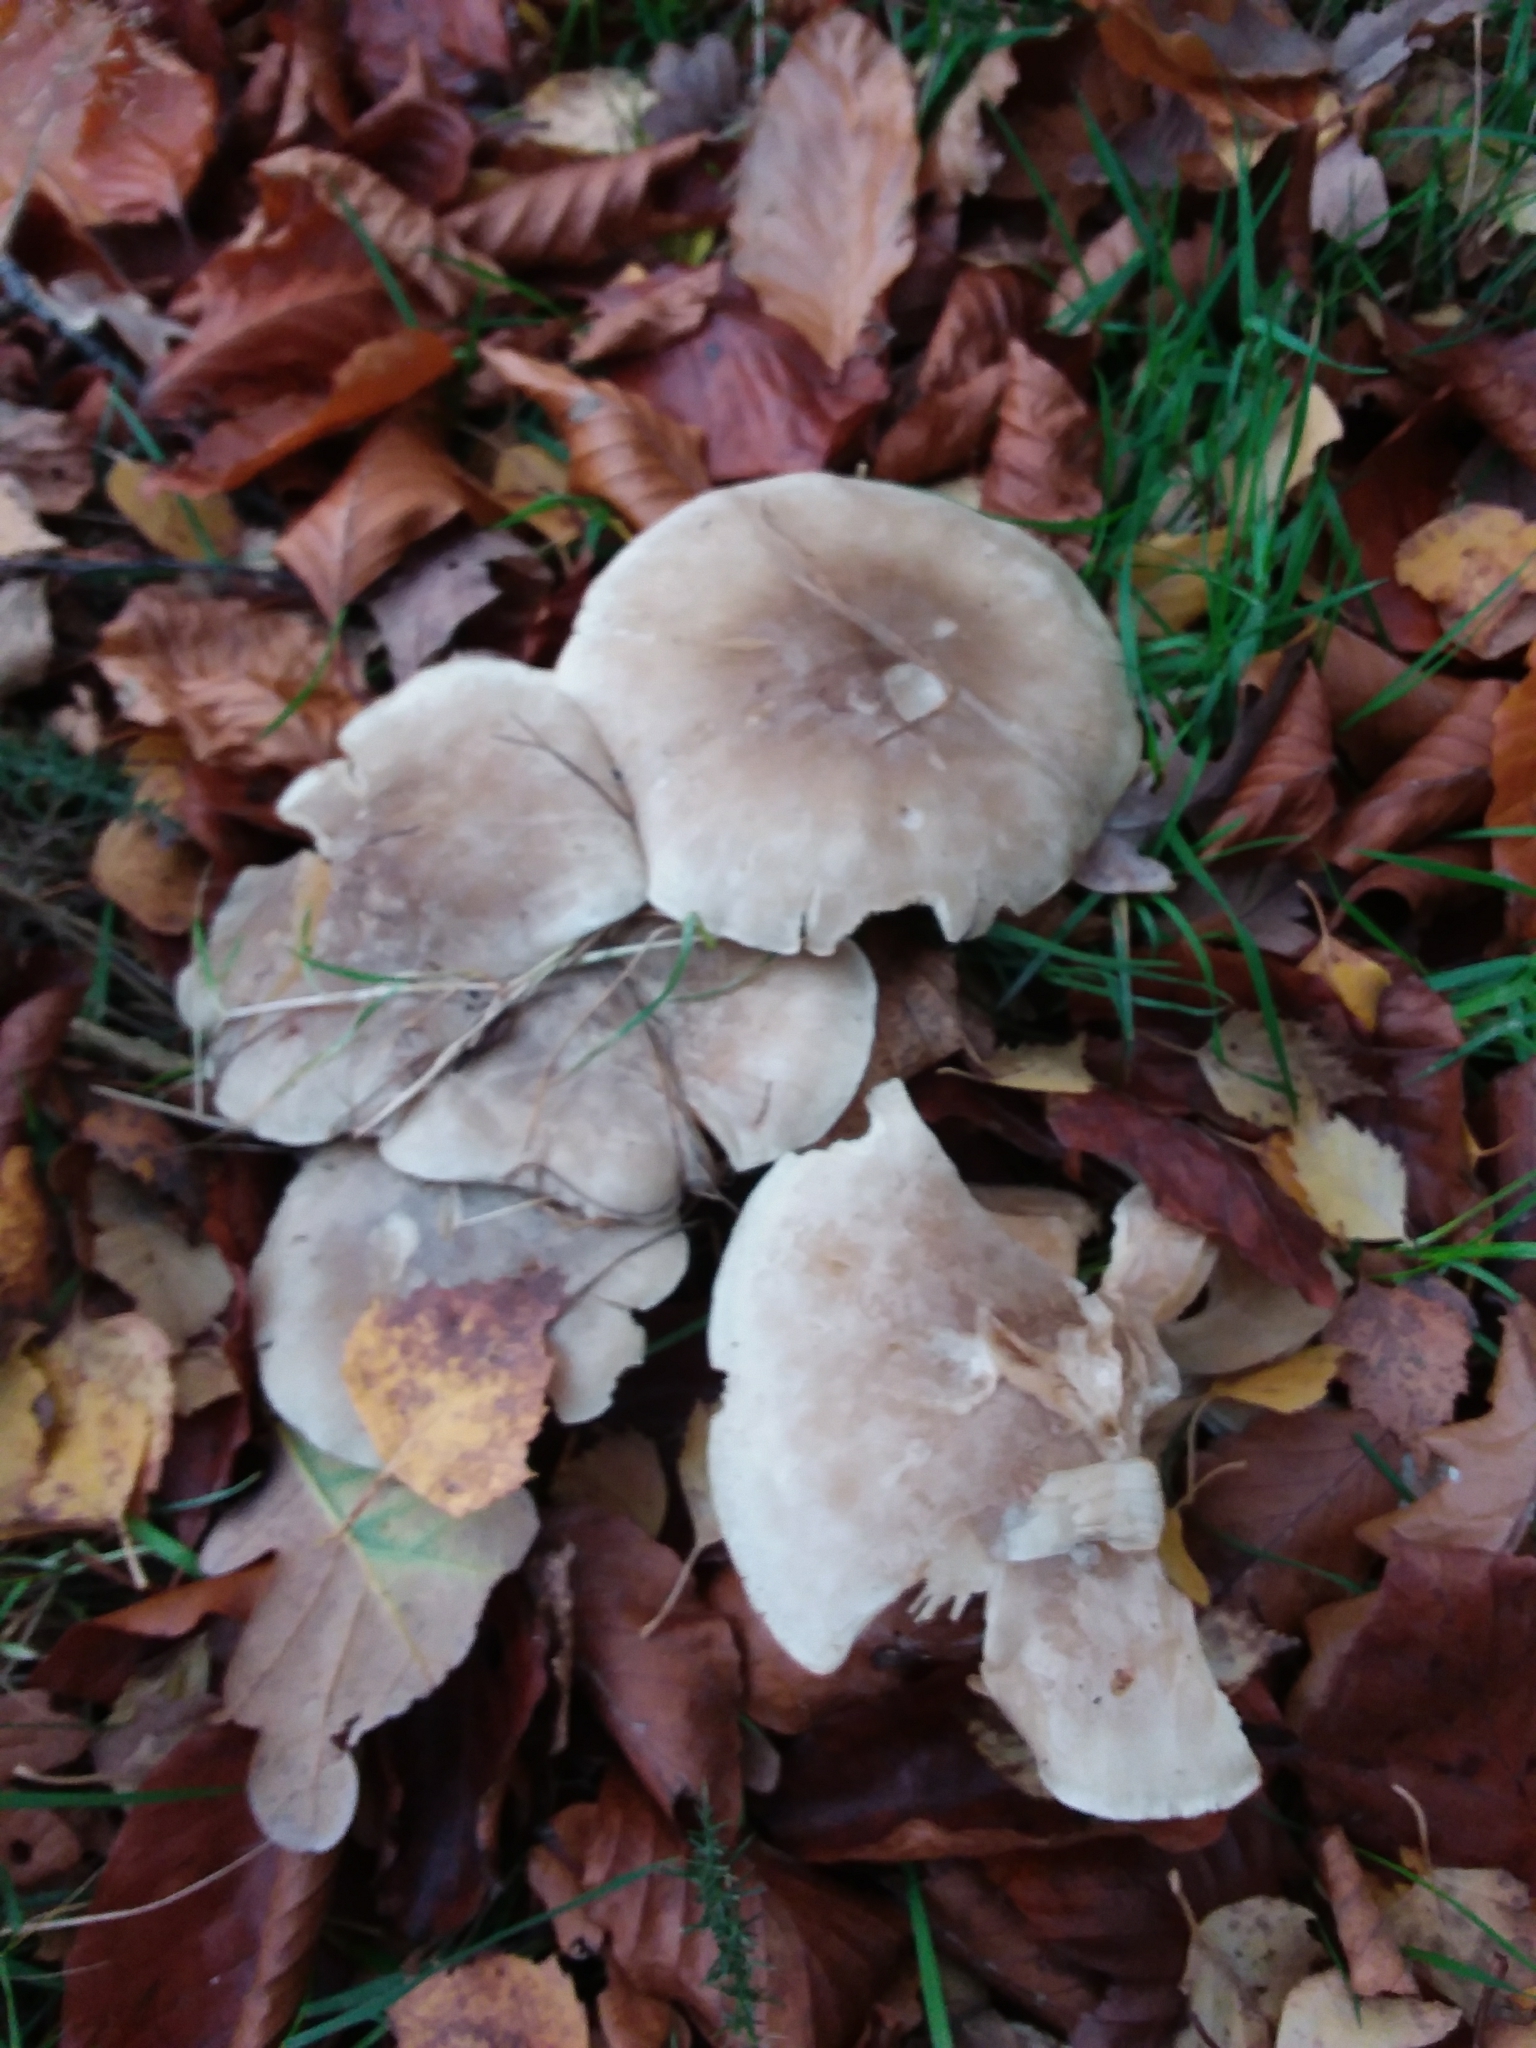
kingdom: Fungi
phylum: Basidiomycota
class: Agaricomycetes
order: Agaricales
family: Tricholomataceae
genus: Clitocybe
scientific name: Clitocybe nebularis
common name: Clouded agaric
